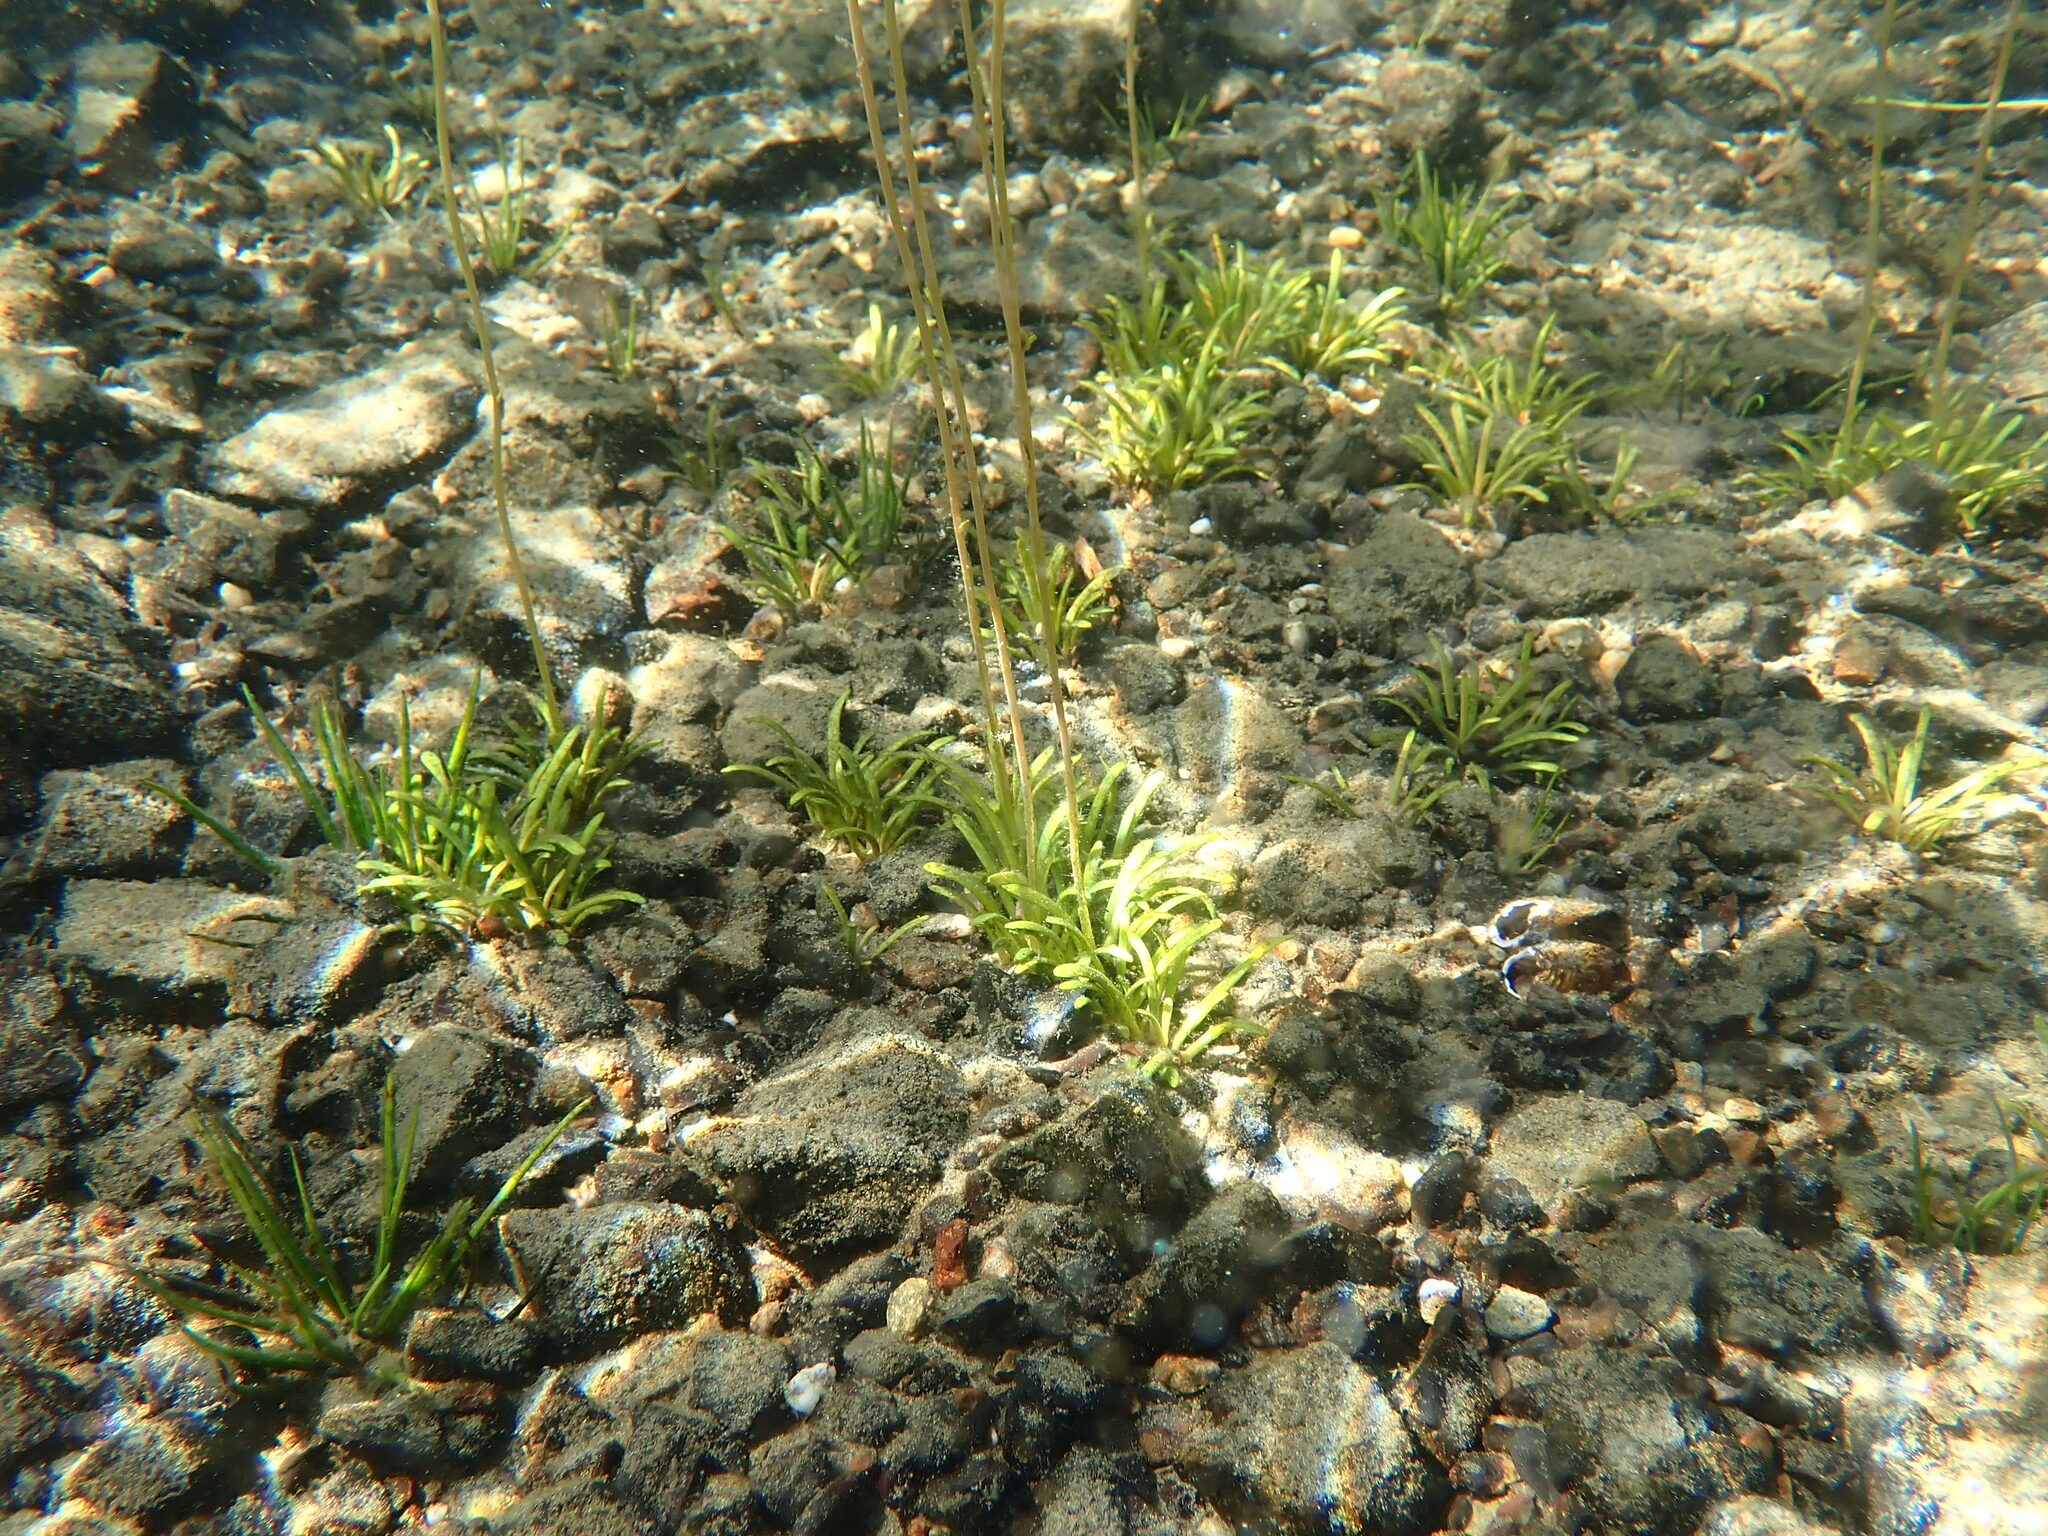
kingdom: Plantae
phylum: Tracheophyta
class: Magnoliopsida
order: Asterales
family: Campanulaceae
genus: Lobelia
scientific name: Lobelia dortmanna
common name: Water lobelia
